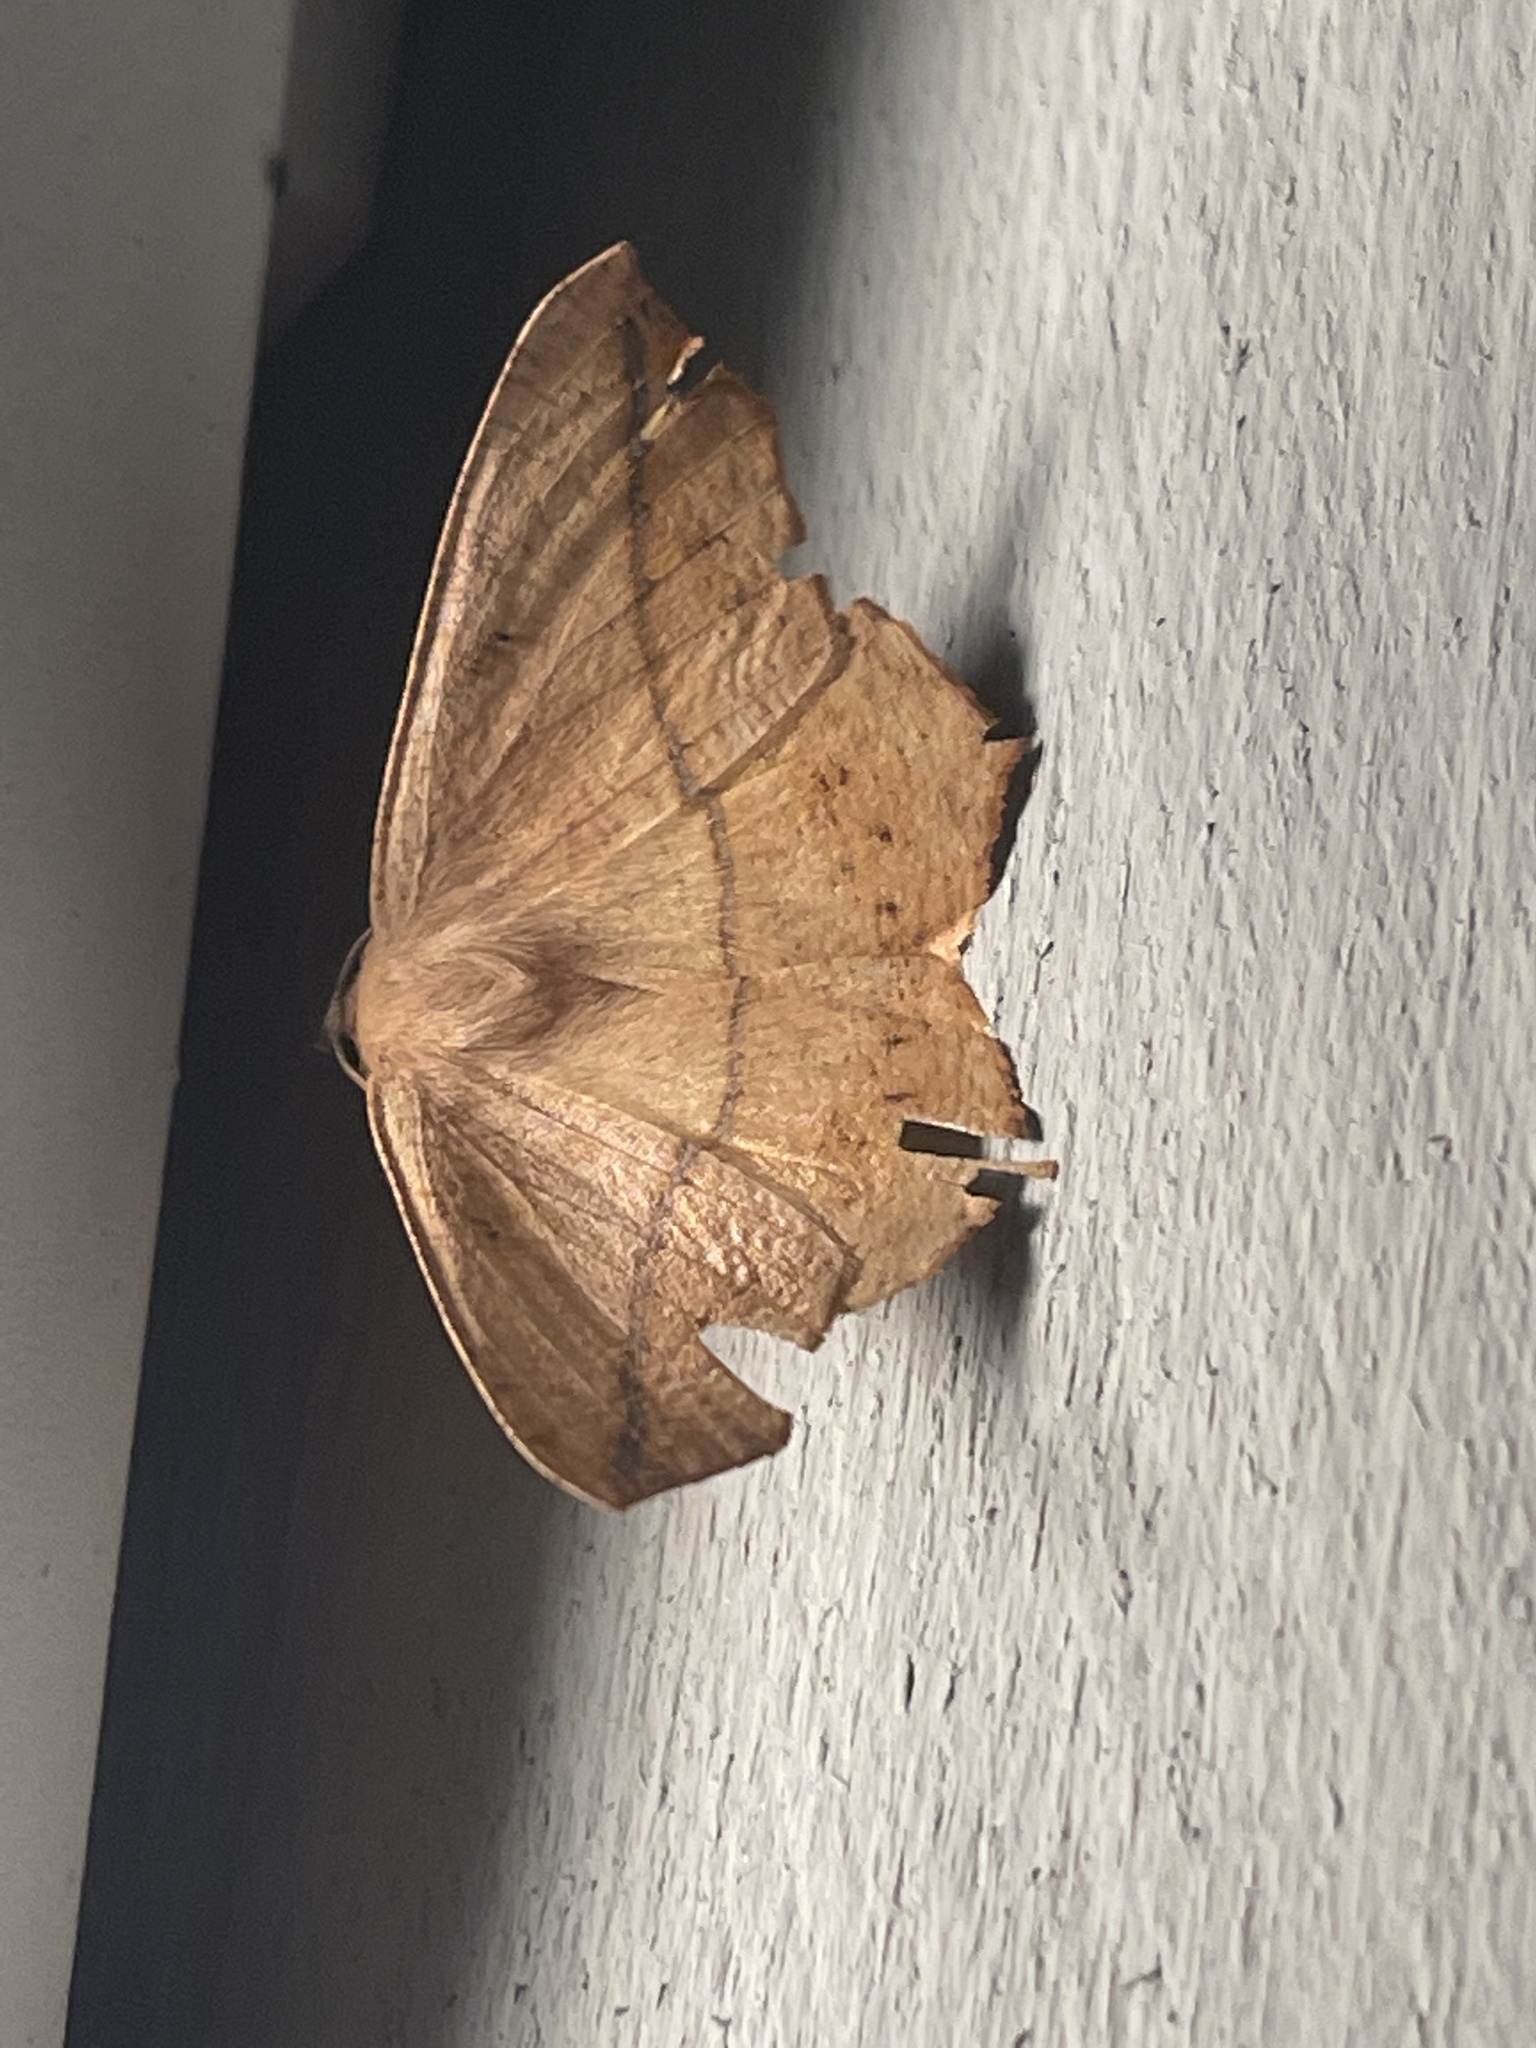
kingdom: Animalia
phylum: Arthropoda
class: Insecta
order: Lepidoptera
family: Geometridae
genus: Prochoerodes
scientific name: Prochoerodes lineola
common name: Large maple spanworm
